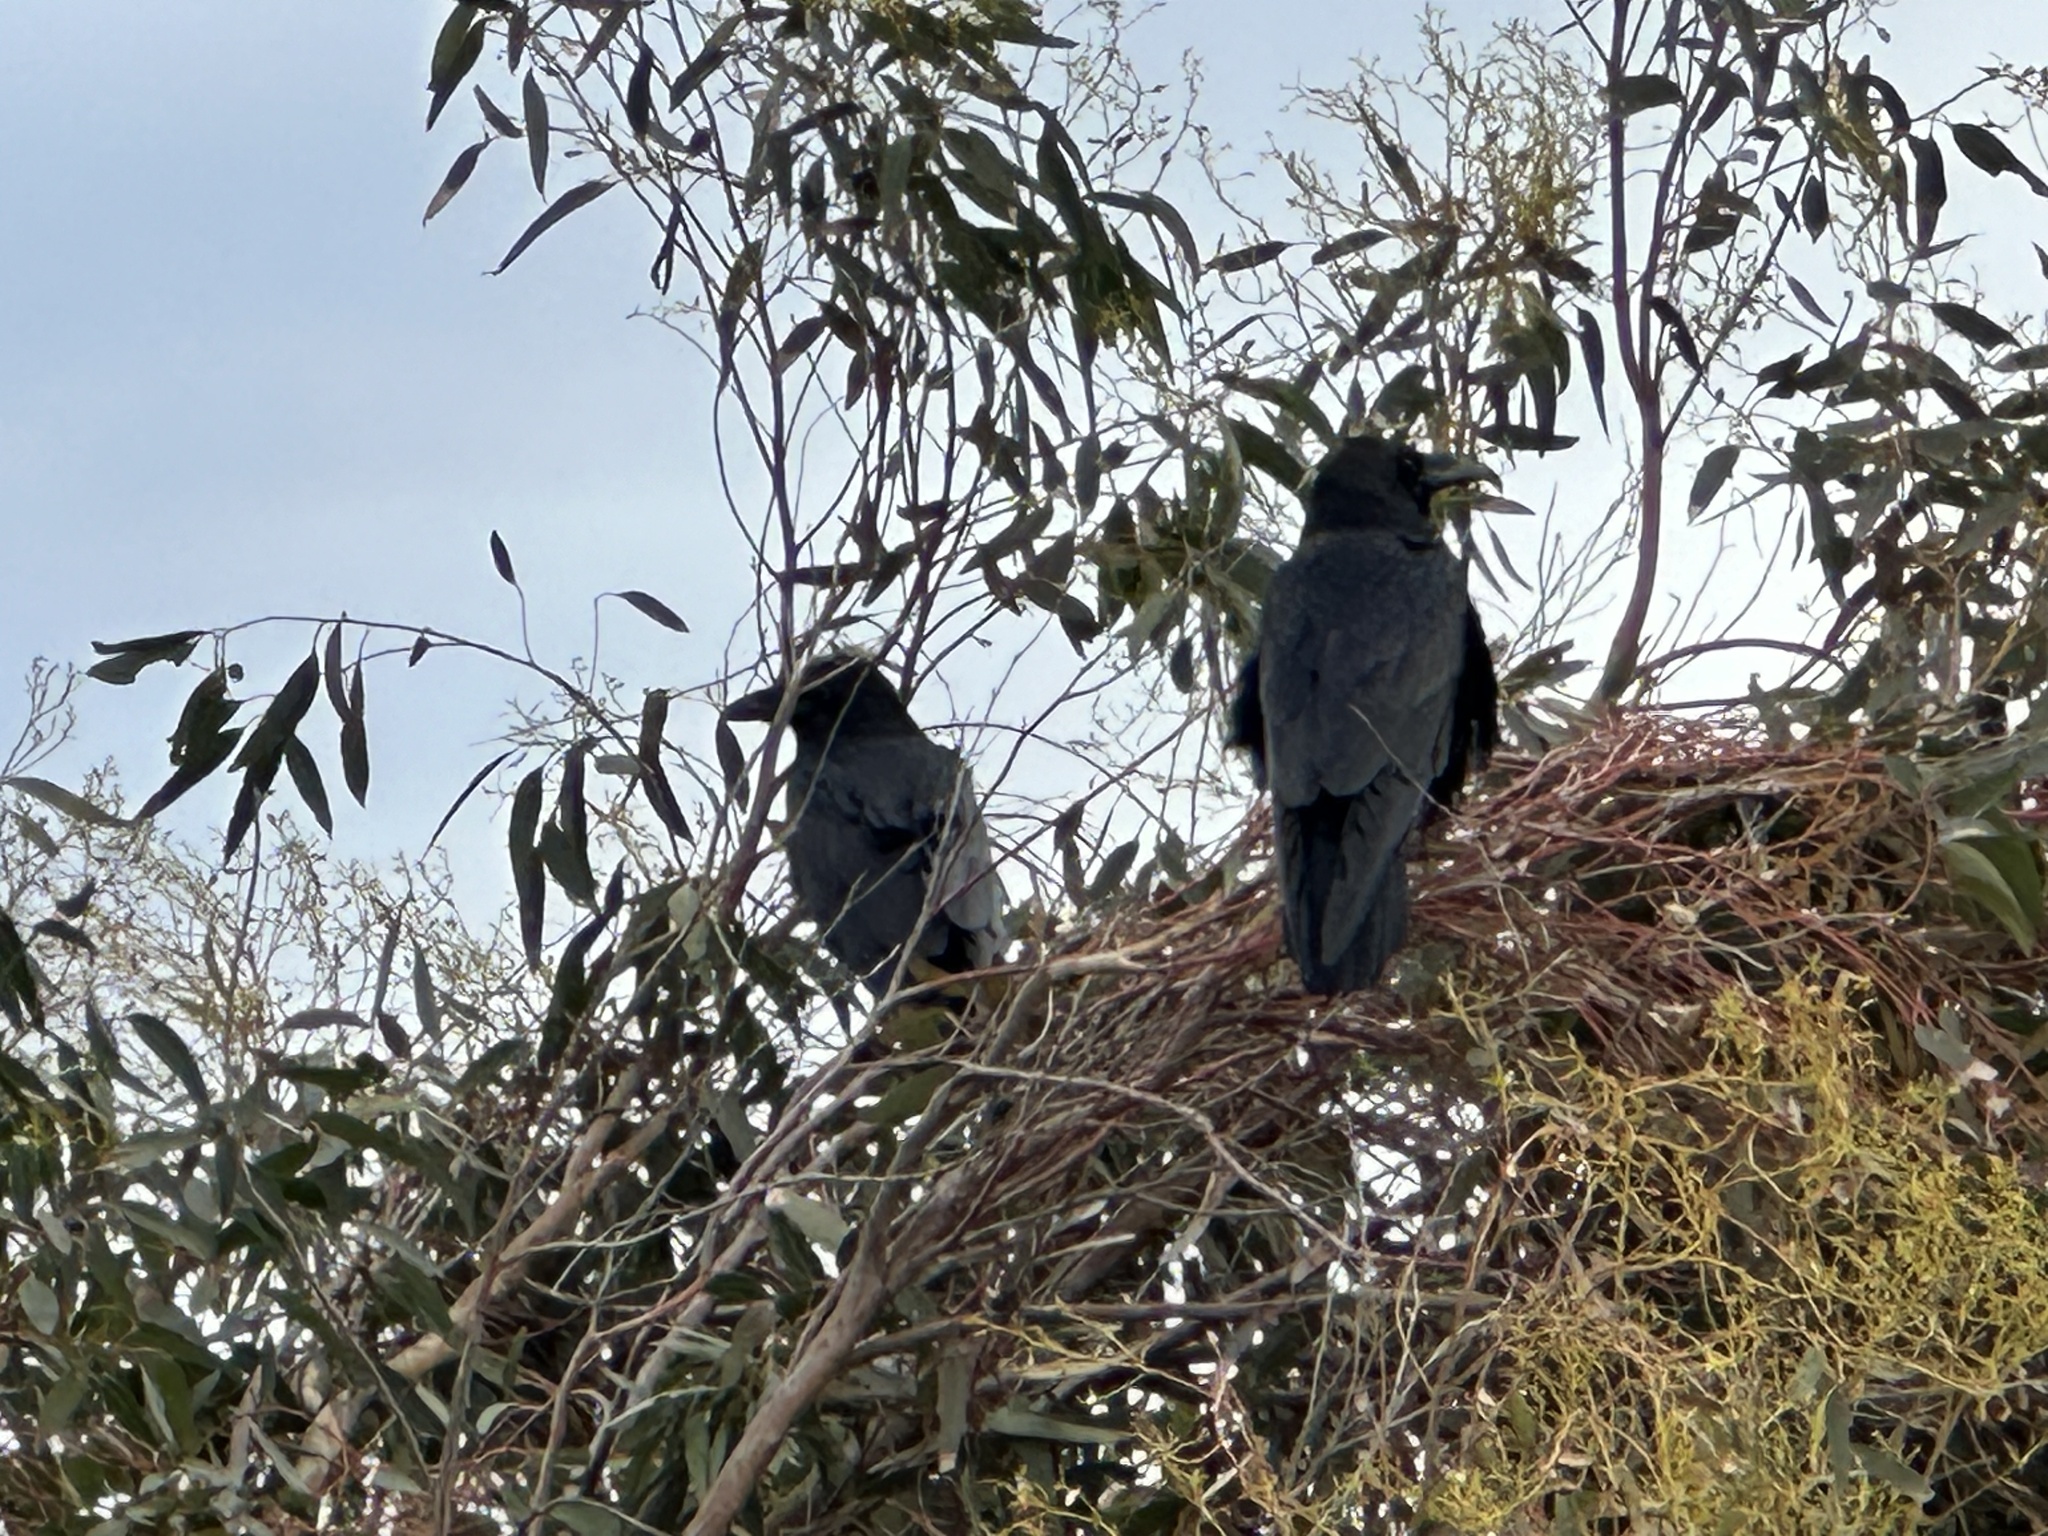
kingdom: Animalia
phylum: Chordata
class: Aves
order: Passeriformes
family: Corvidae
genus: Corvus
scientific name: Corvus corax
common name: Common raven
